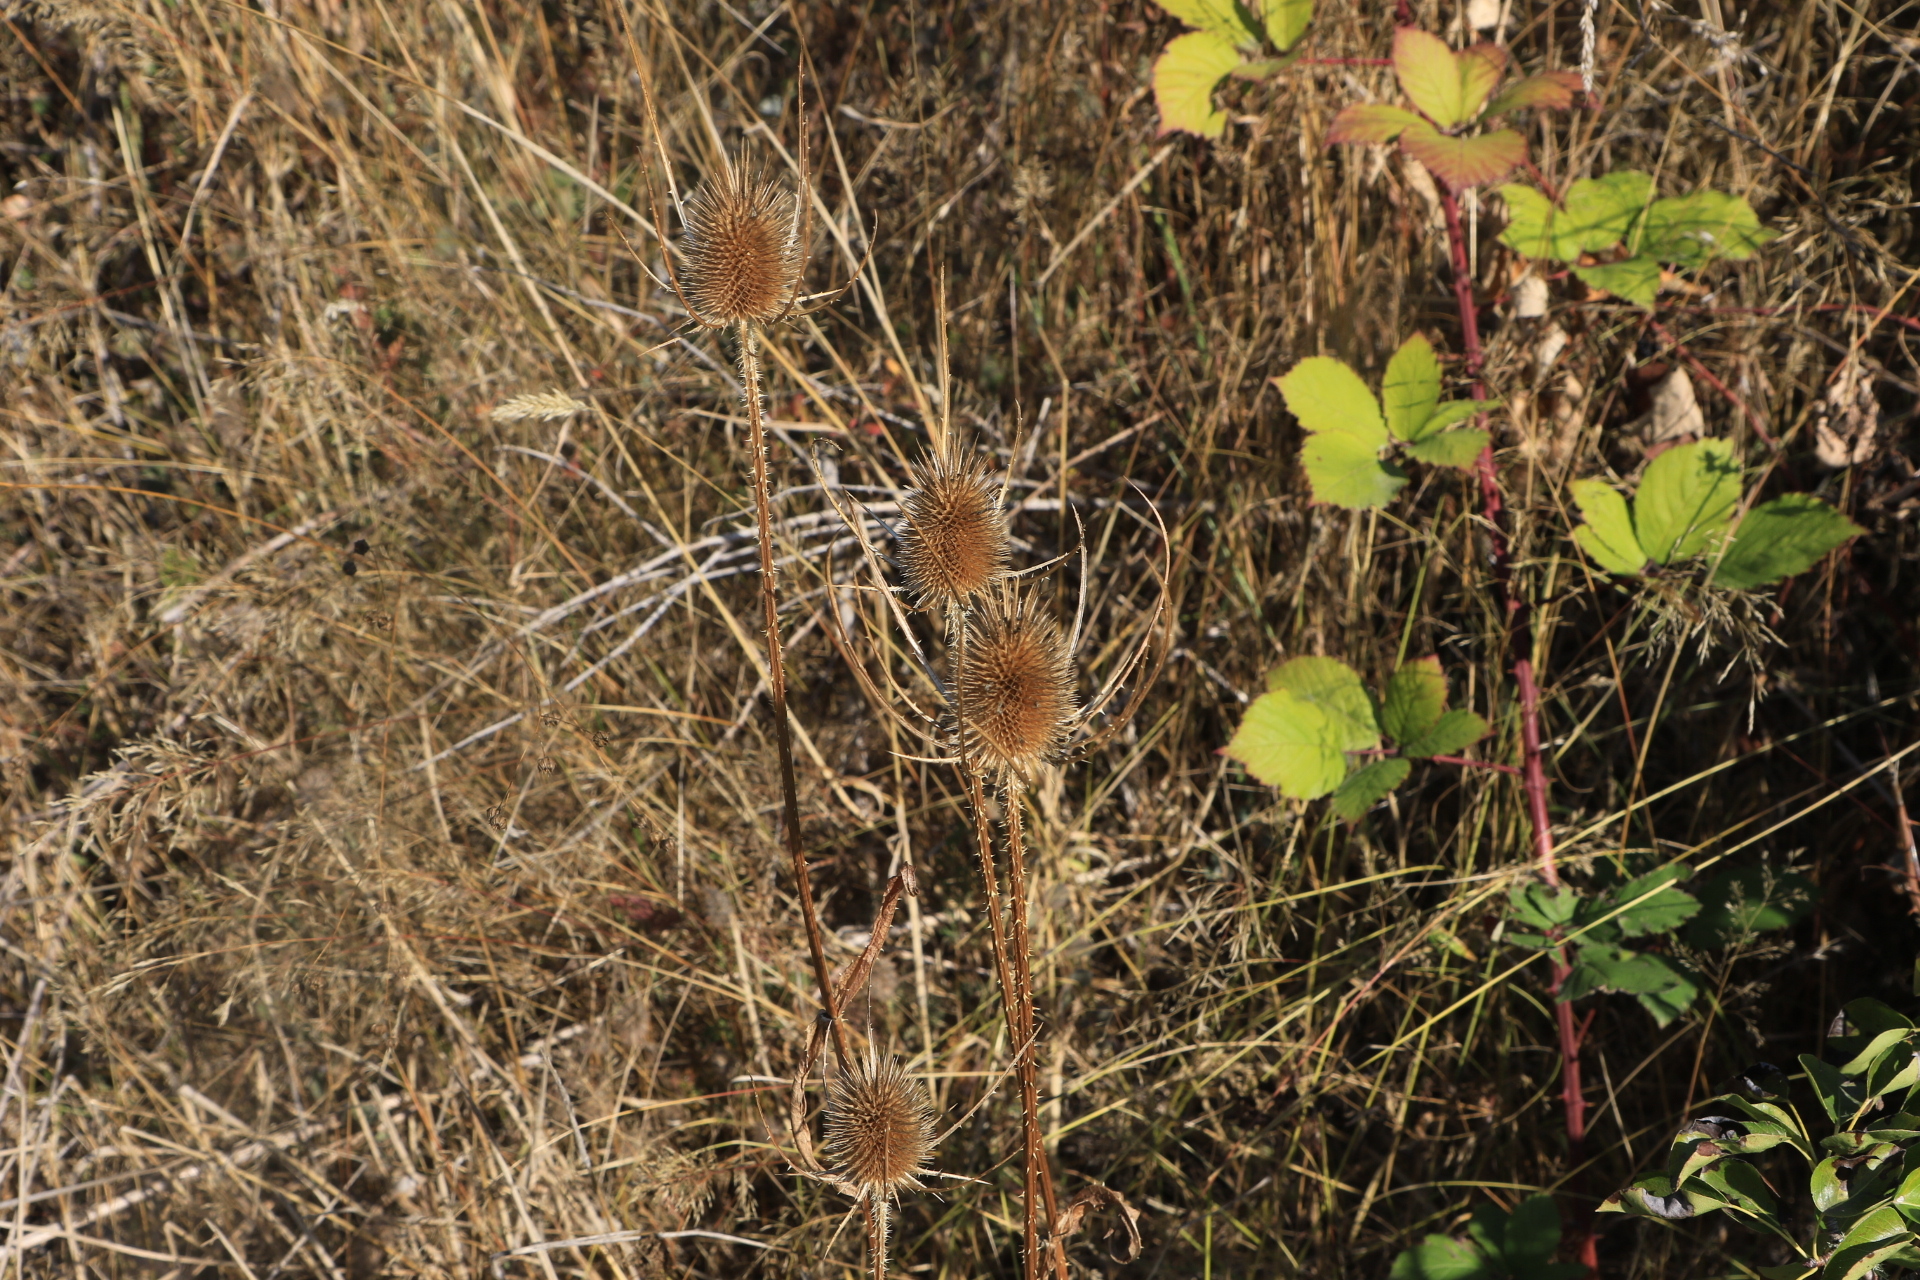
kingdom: Plantae
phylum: Tracheophyta
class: Magnoliopsida
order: Dipsacales
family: Caprifoliaceae
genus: Dipsacus
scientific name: Dipsacus fullonum
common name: Teasel
